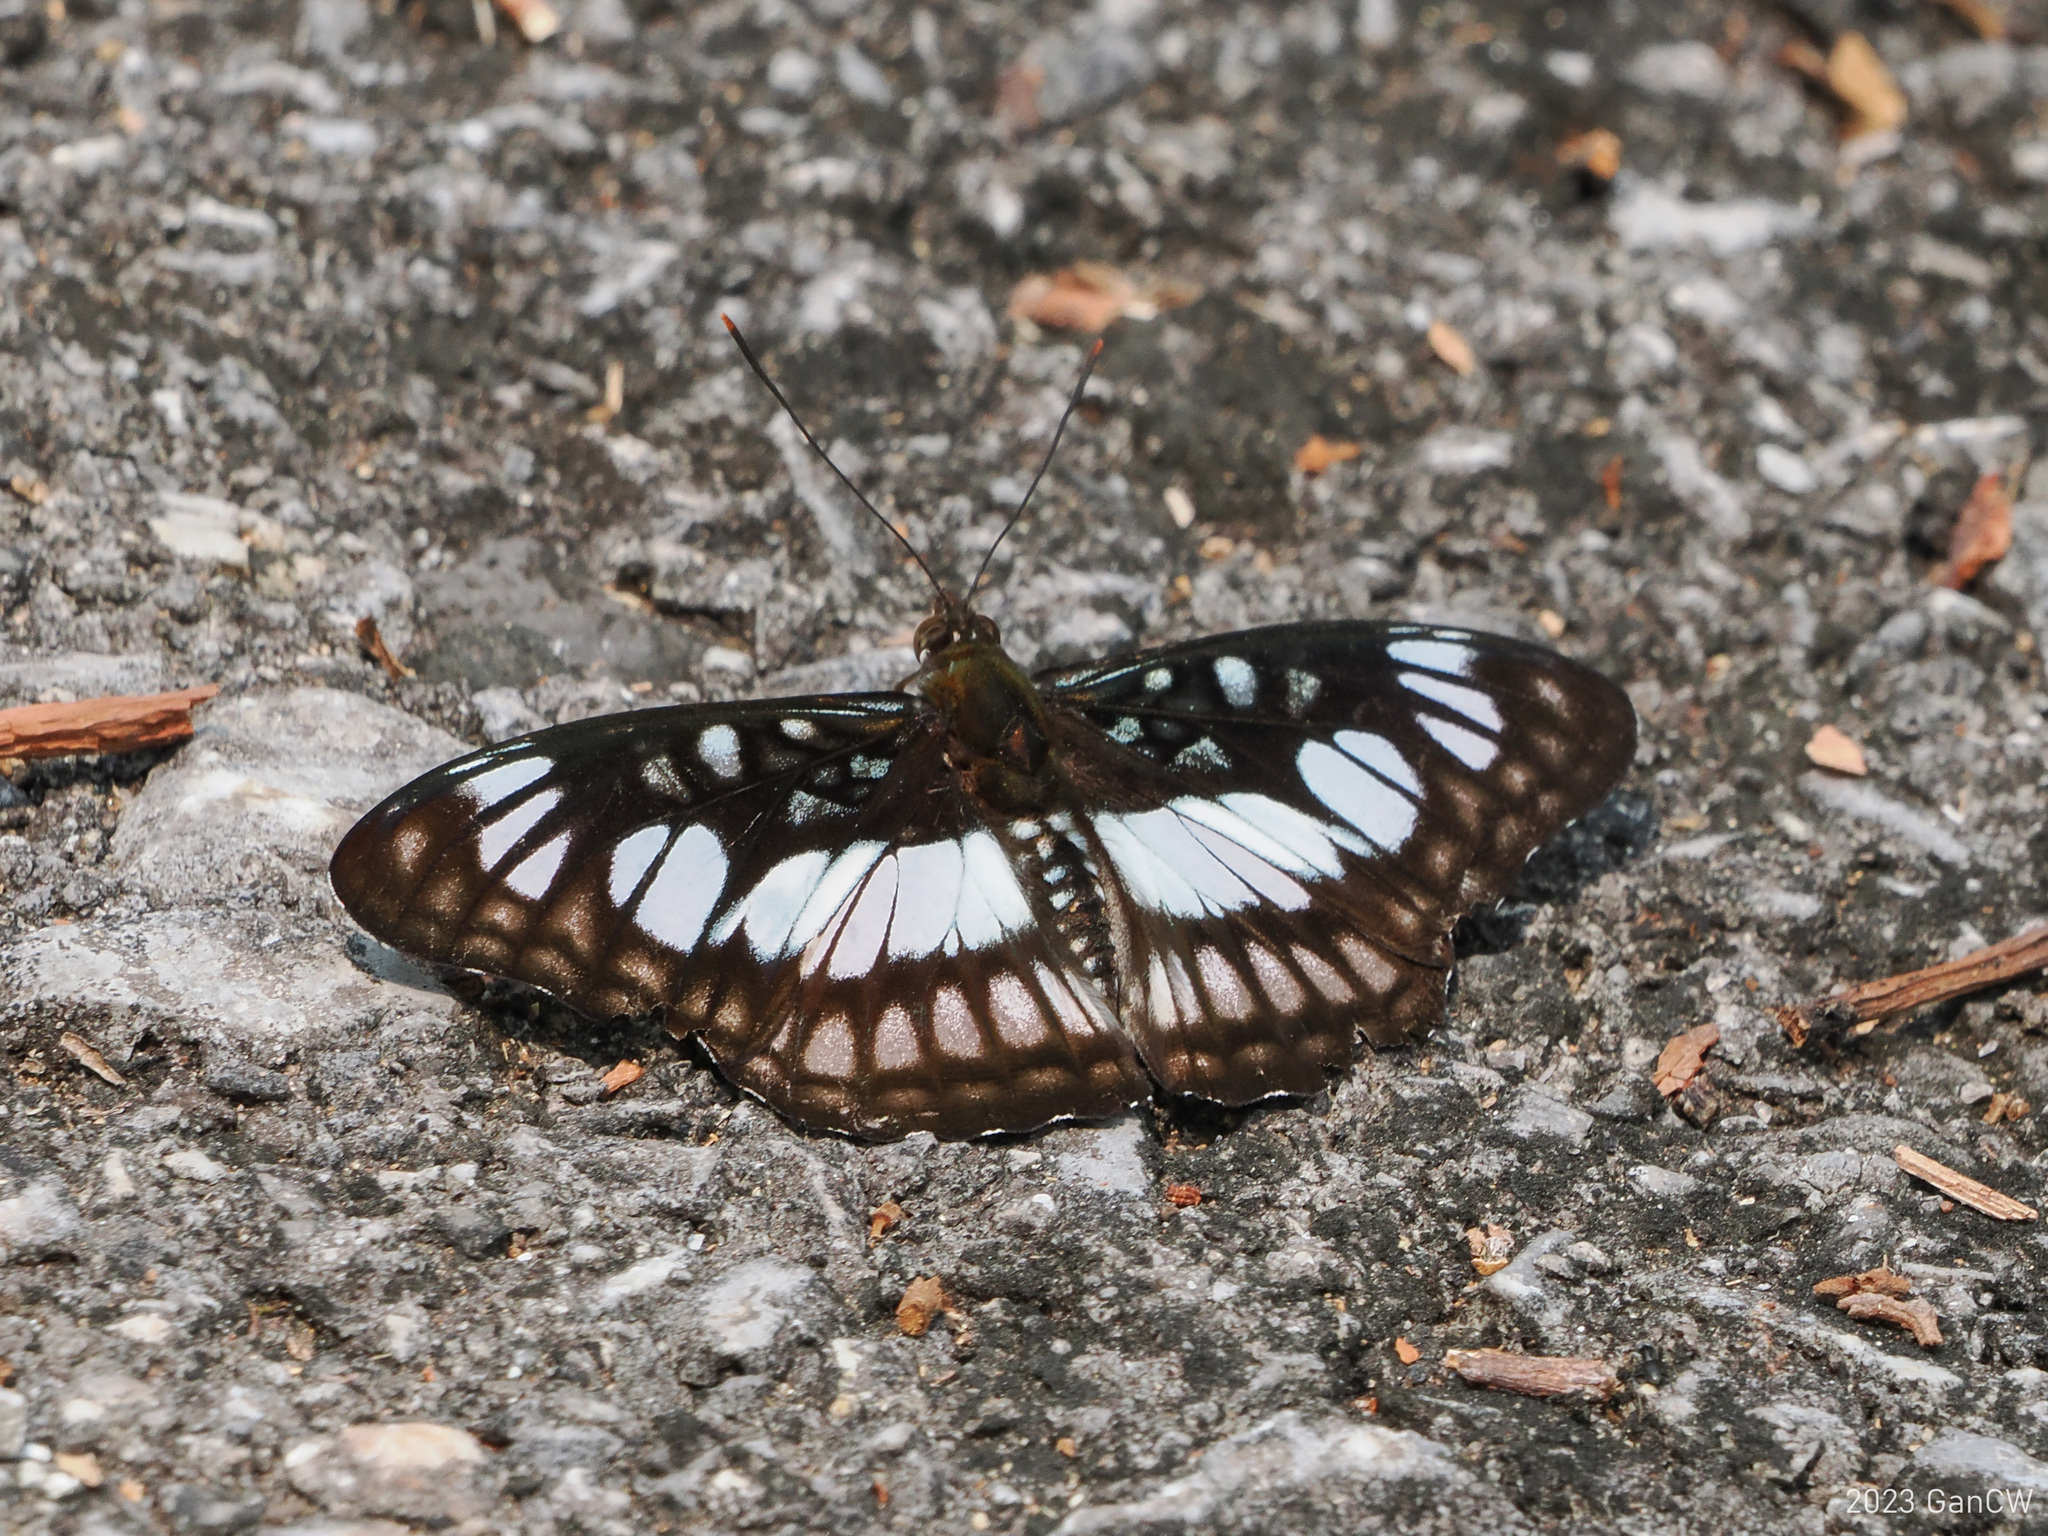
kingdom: Animalia
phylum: Arthropoda
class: Insecta
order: Lepidoptera
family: Nymphalidae
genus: Parathyma
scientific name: Parathyma ranga
